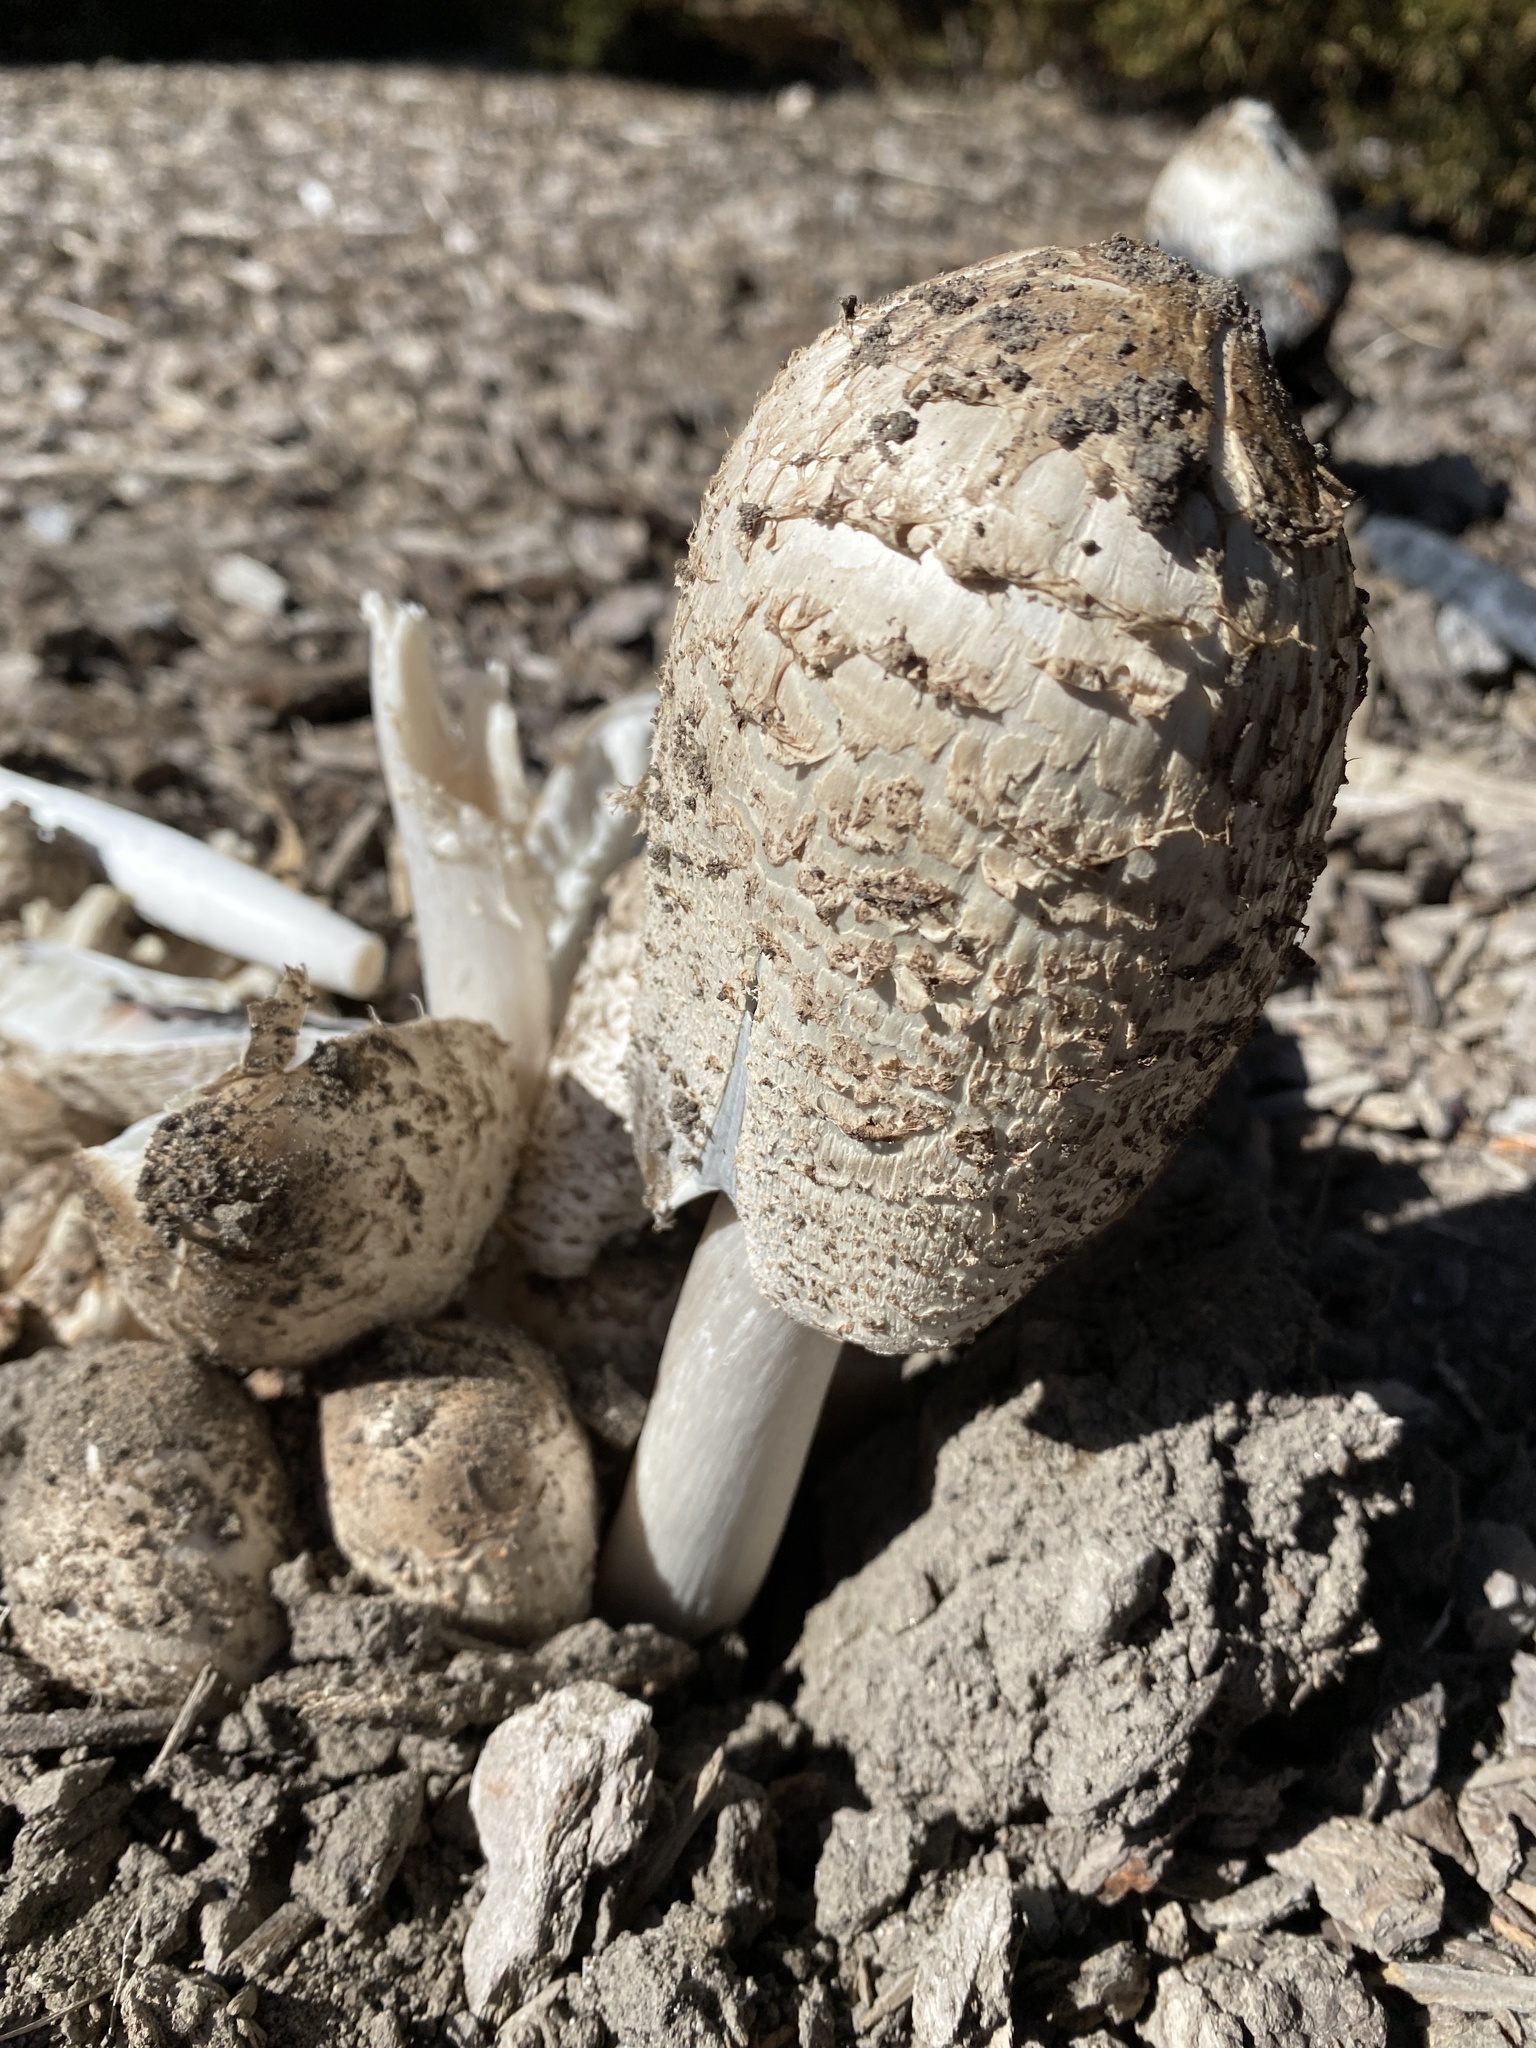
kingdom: Fungi
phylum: Basidiomycota
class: Agaricomycetes
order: Agaricales
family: Agaricaceae
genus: Coprinus
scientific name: Coprinus comatus
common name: Lawyer's wig
